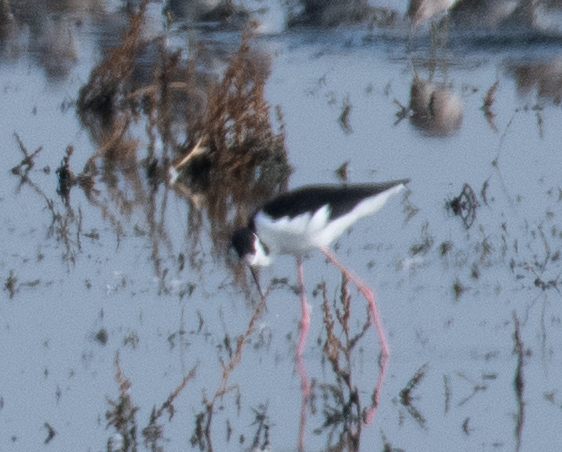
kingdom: Animalia
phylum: Chordata
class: Aves
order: Charadriiformes
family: Recurvirostridae
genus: Himantopus
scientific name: Himantopus mexicanus
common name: Black-necked stilt
